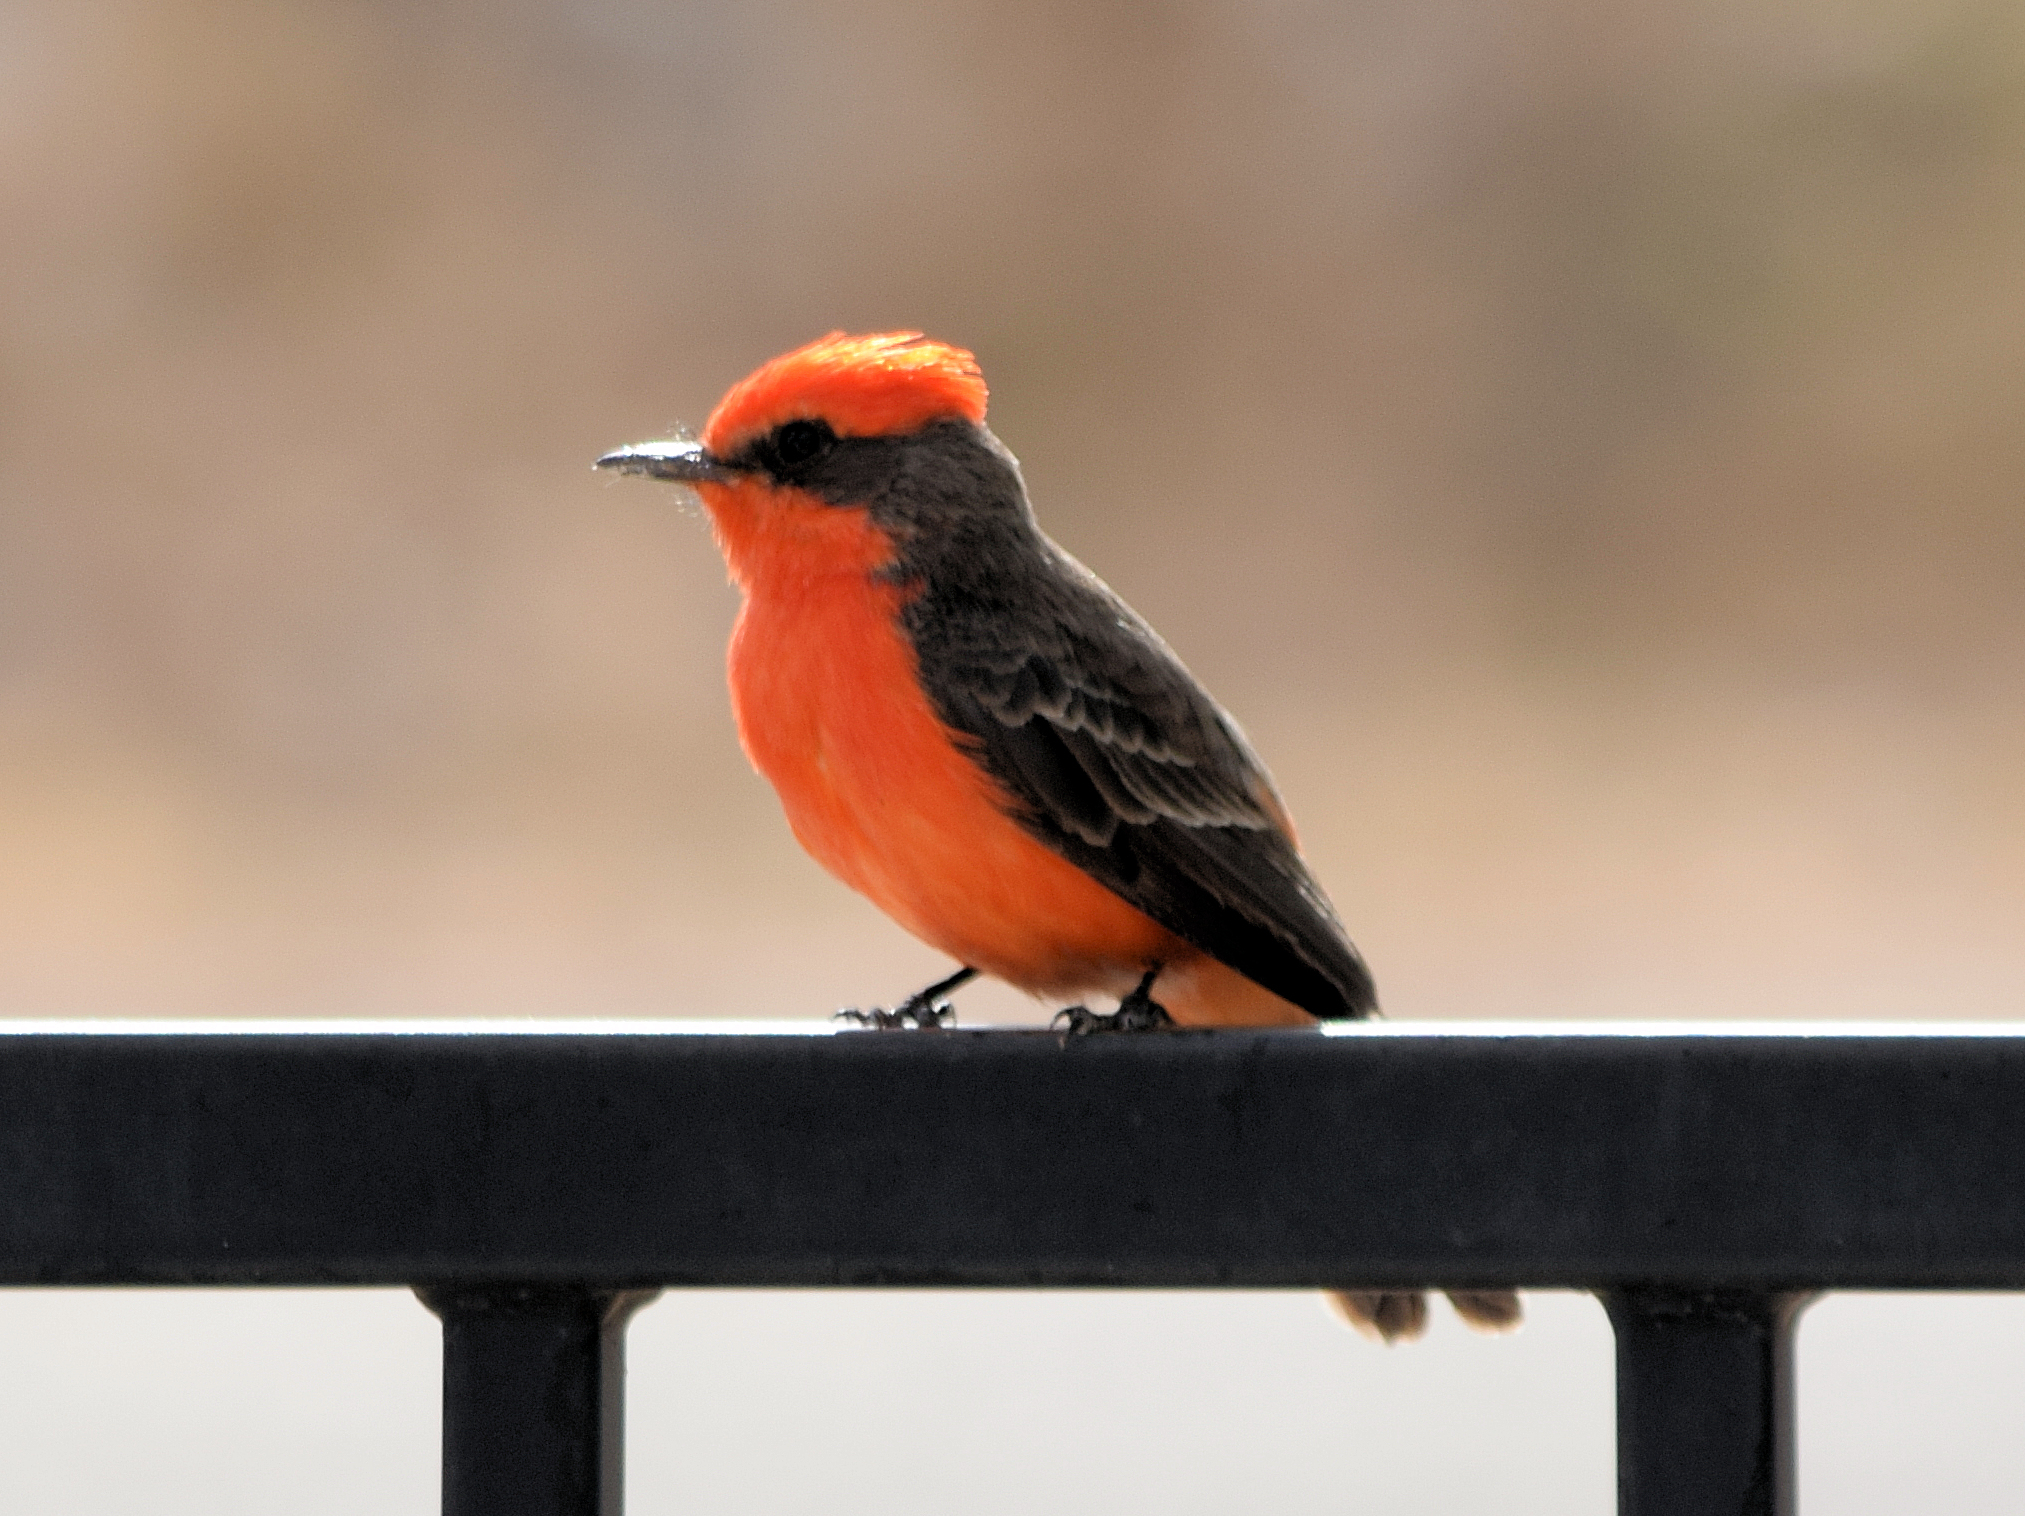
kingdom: Animalia
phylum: Chordata
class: Aves
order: Passeriformes
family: Tyrannidae
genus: Pyrocephalus
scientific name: Pyrocephalus rubinus
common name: Vermilion flycatcher
